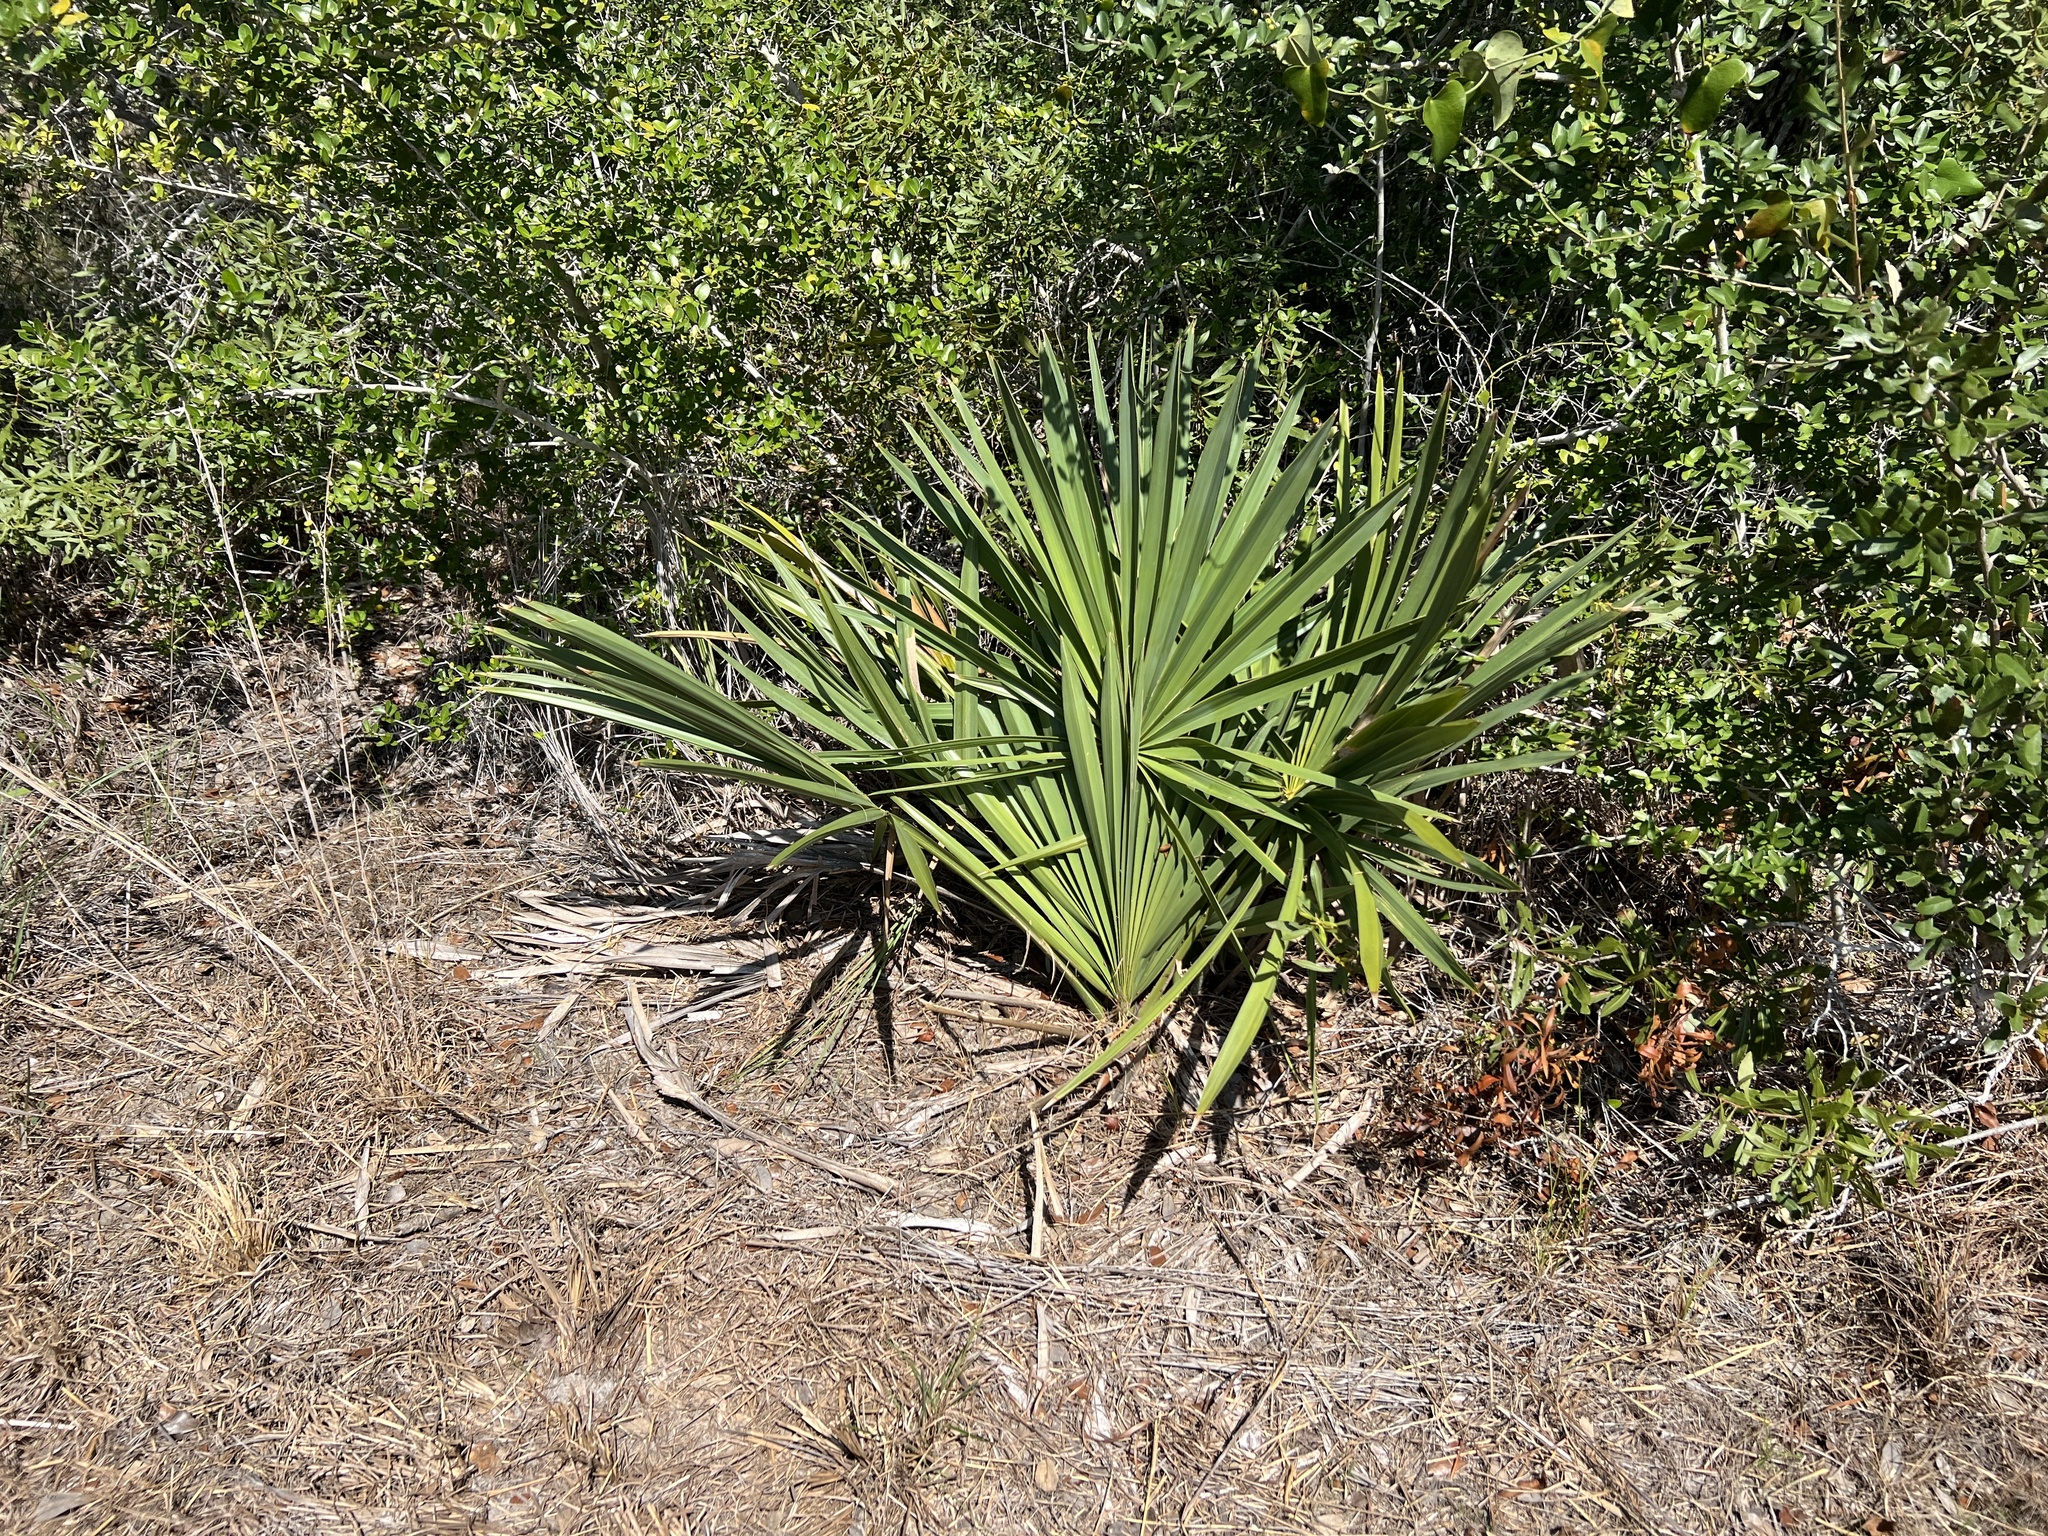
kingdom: Plantae
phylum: Tracheophyta
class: Liliopsida
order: Arecales
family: Arecaceae
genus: Sabal
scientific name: Sabal minor
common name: Dwarf palmetto
